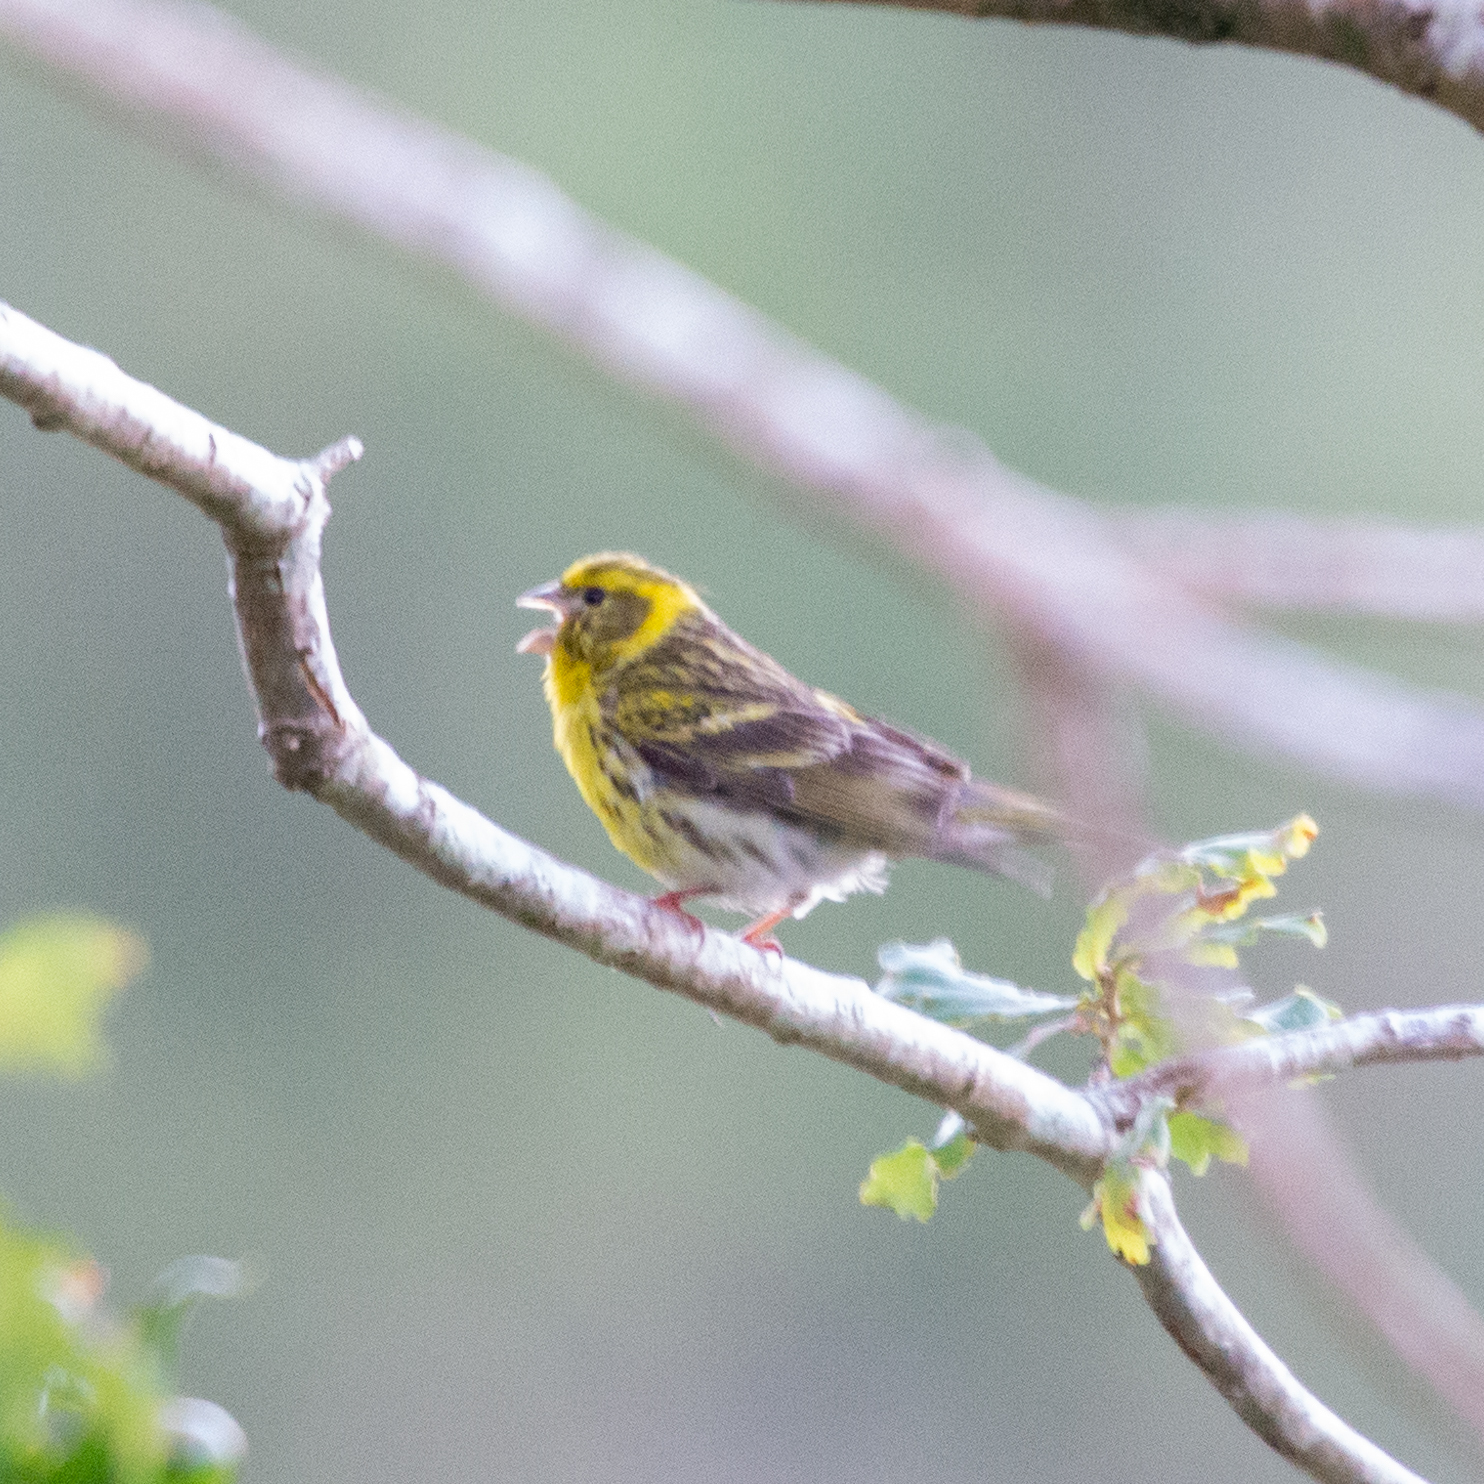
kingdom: Animalia
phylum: Chordata
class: Aves
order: Passeriformes
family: Fringillidae
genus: Serinus
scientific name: Serinus serinus
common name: European serin
